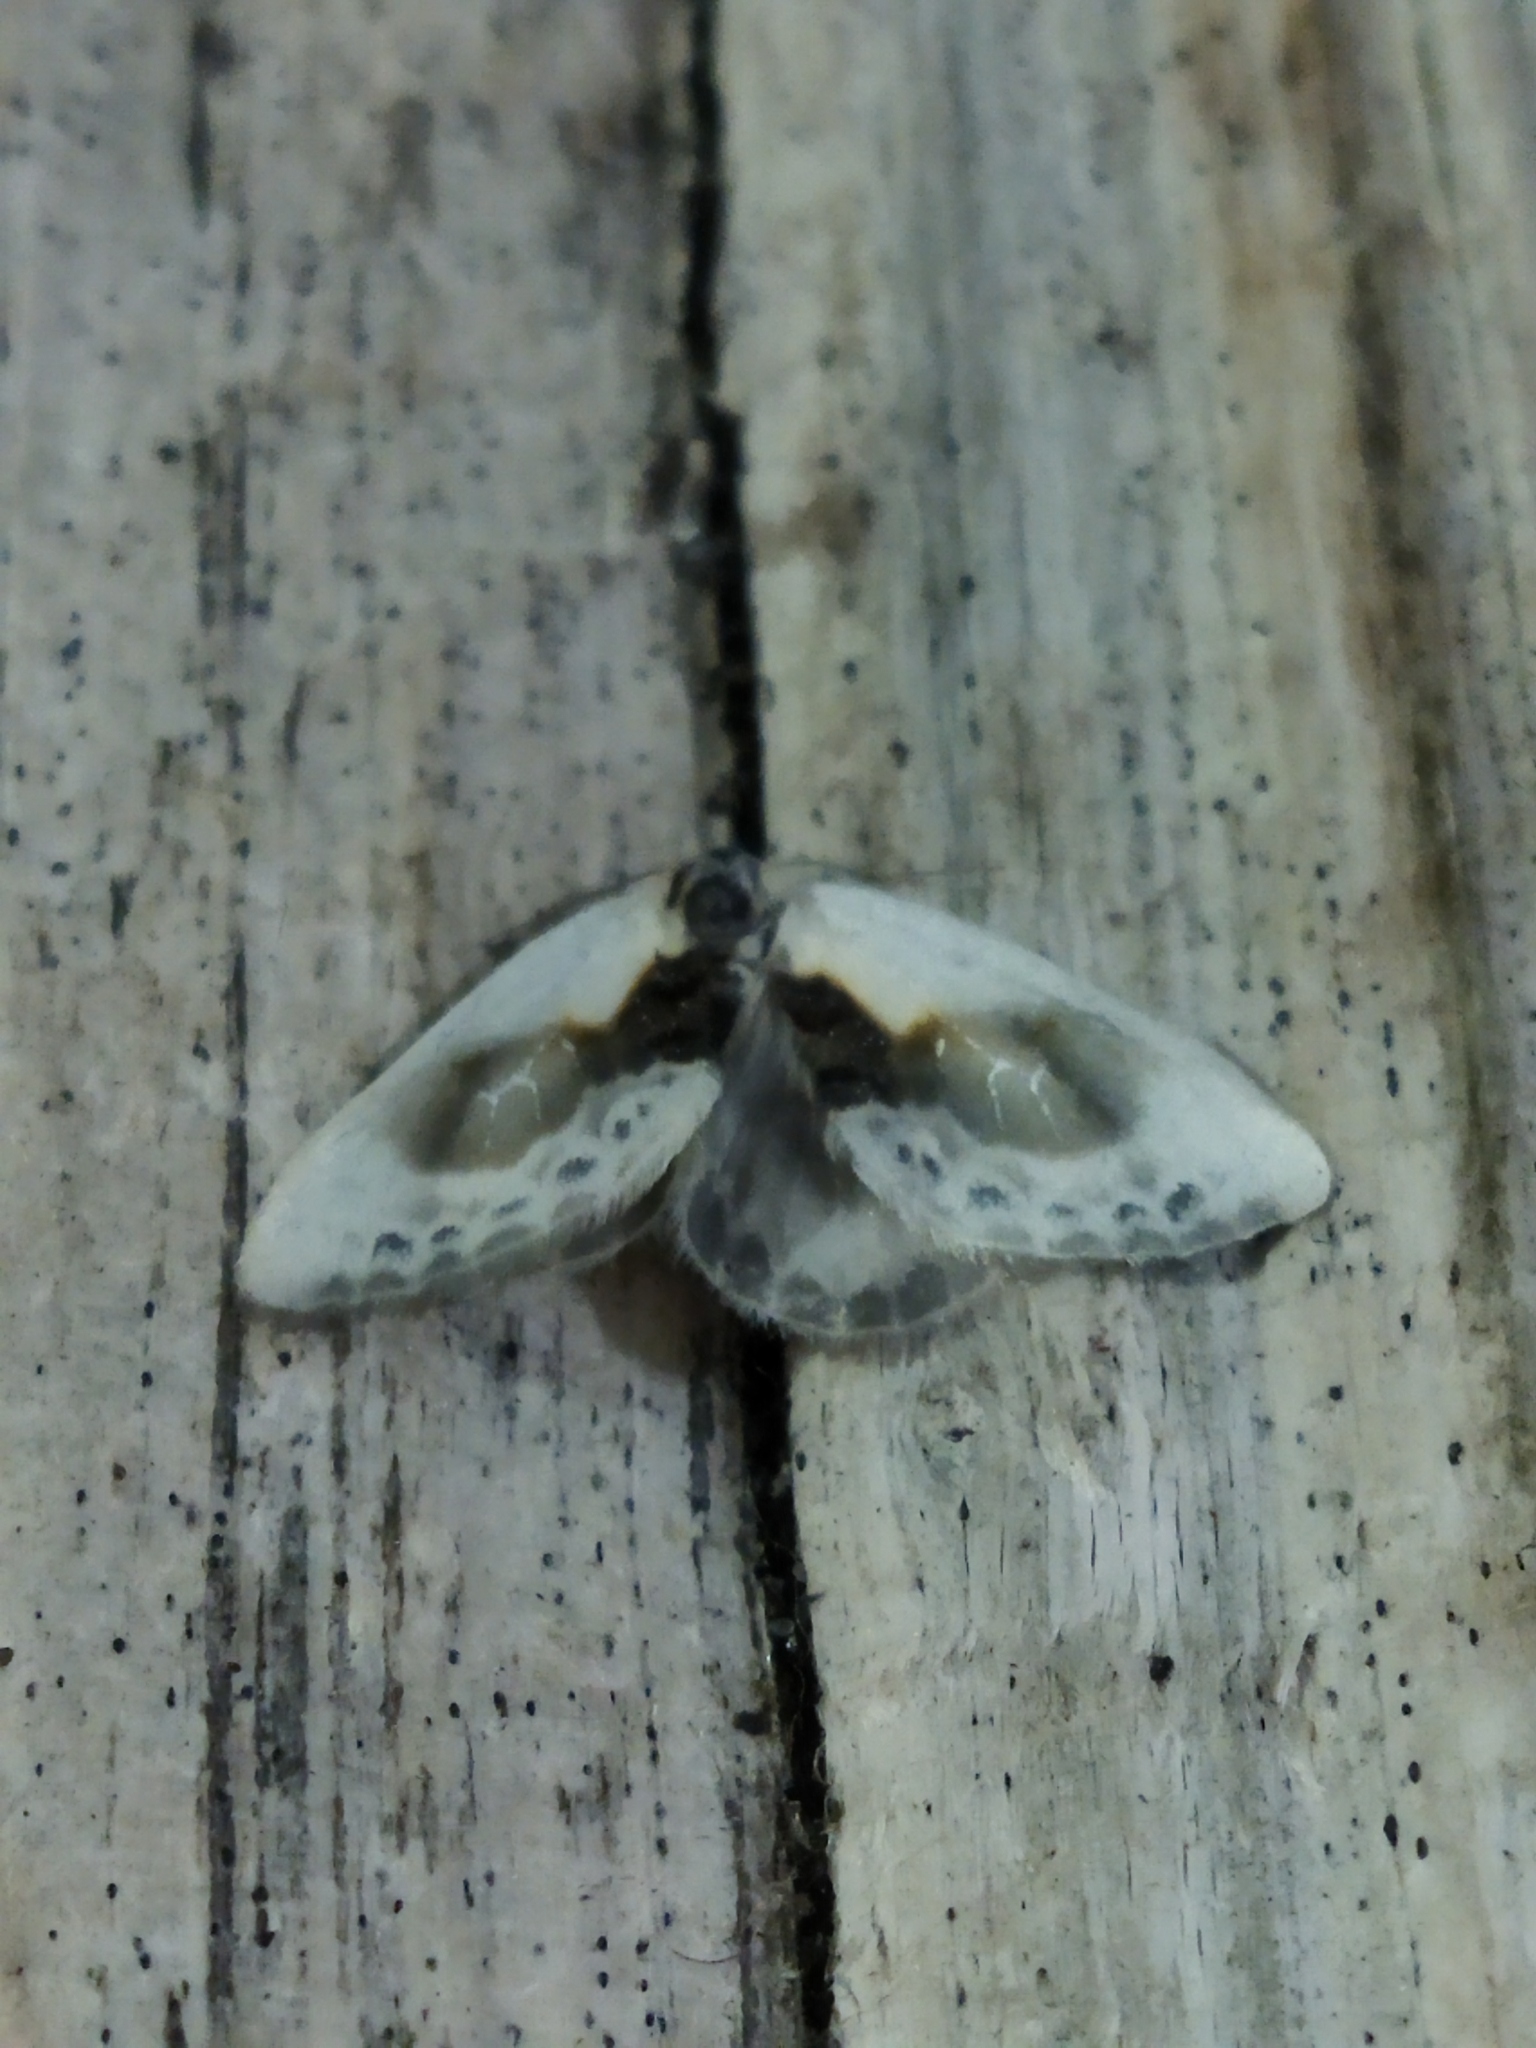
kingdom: Animalia
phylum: Arthropoda
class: Insecta
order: Lepidoptera
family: Drepanidae
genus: Cilix
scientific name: Cilix glaucata
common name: Chinese character
